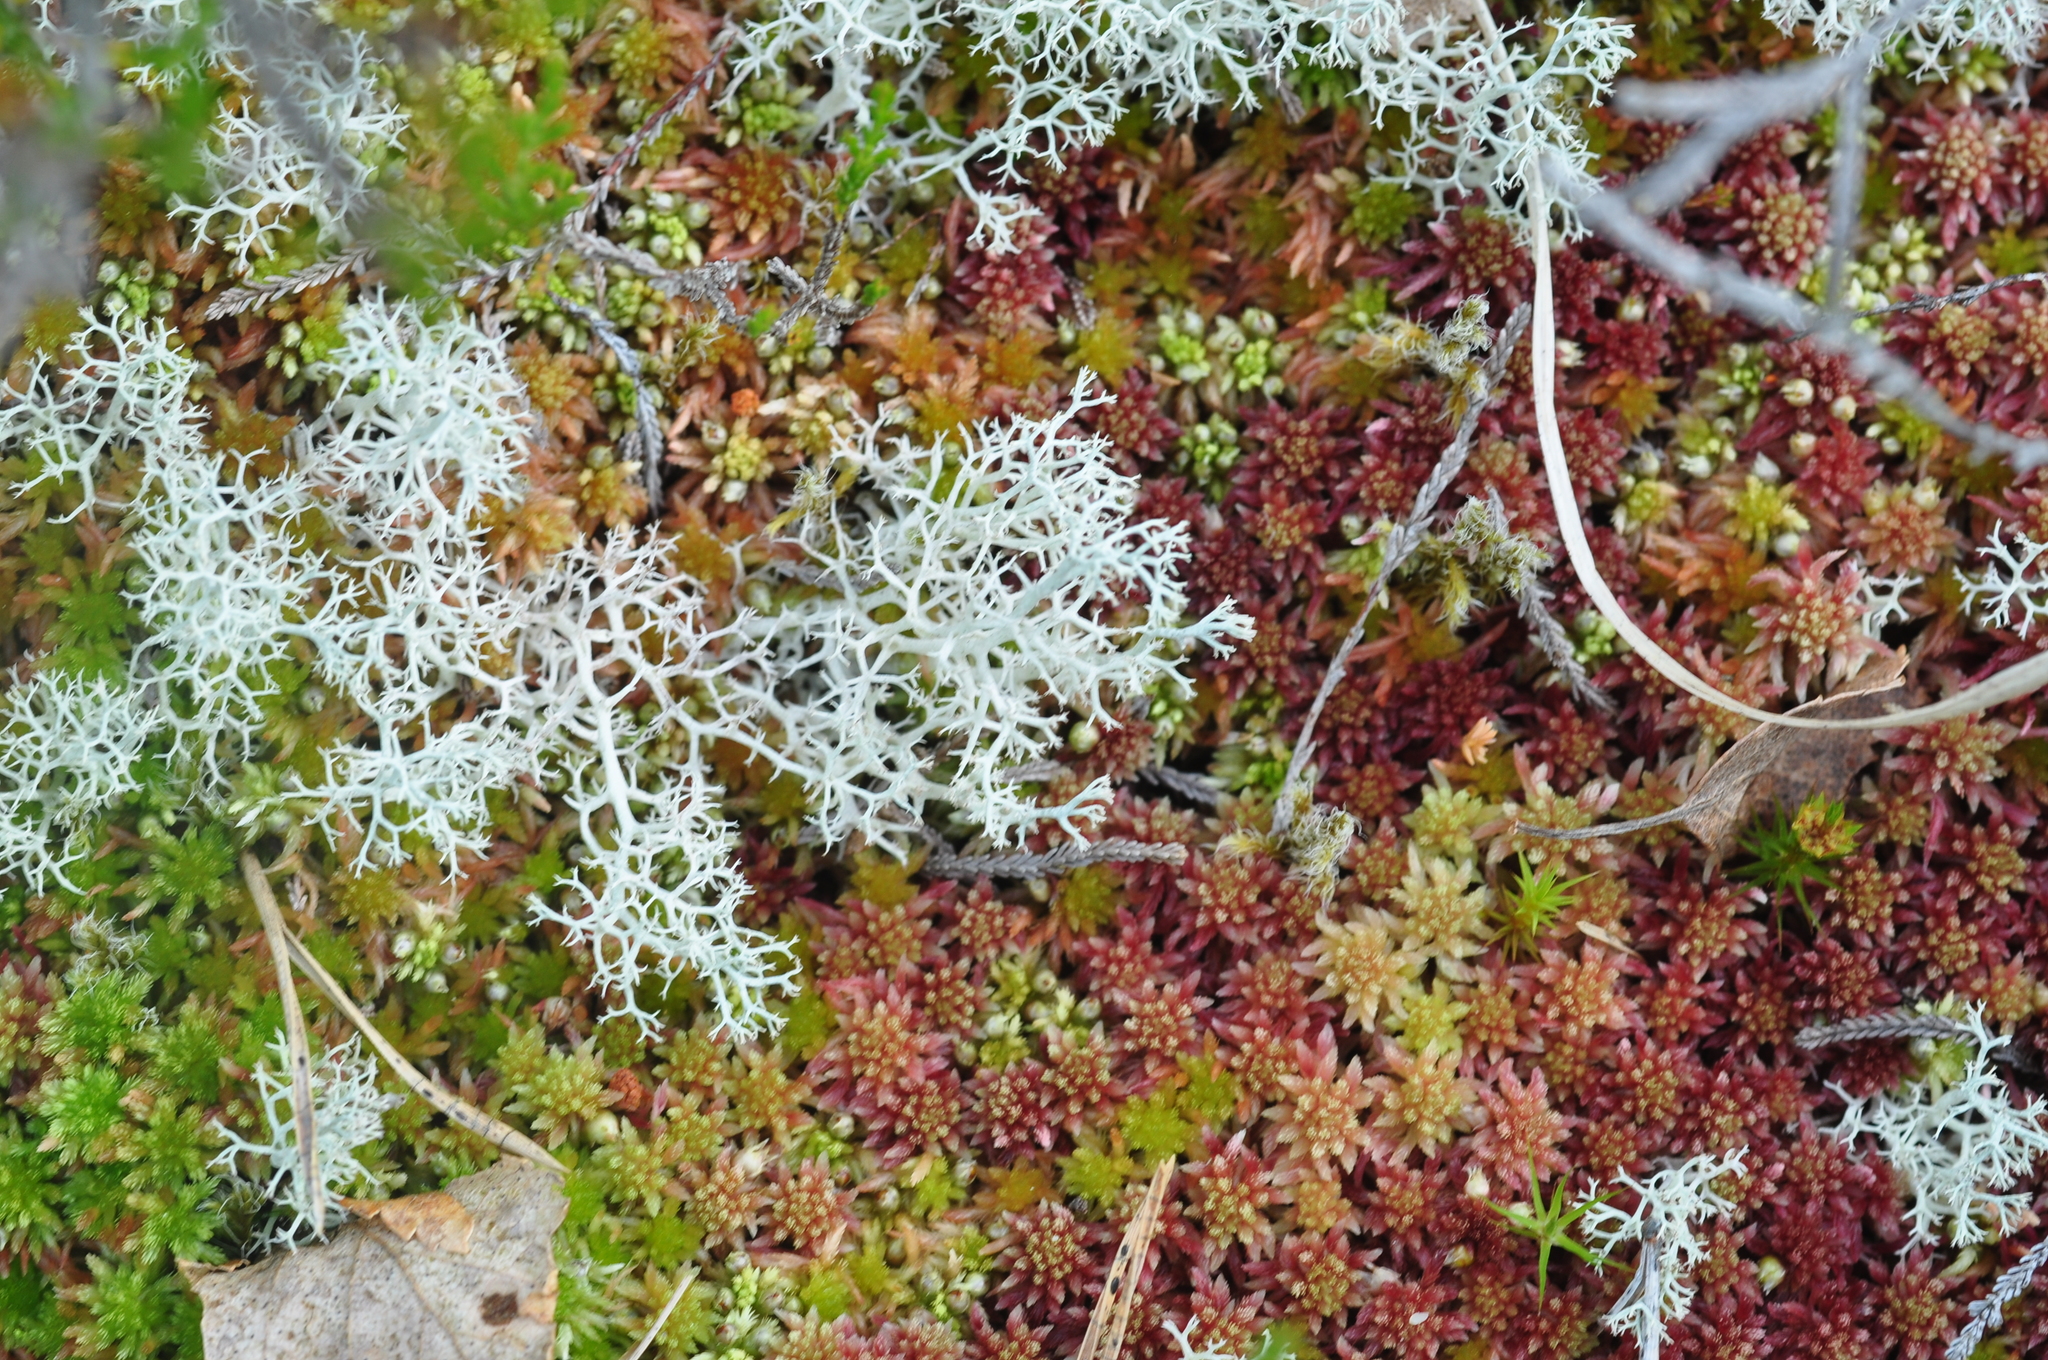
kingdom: Fungi
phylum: Ascomycota
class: Lecanoromycetes
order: Lecanorales
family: Cladoniaceae
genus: Cladonia
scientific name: Cladonia portentosa
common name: Reindeer lichen
